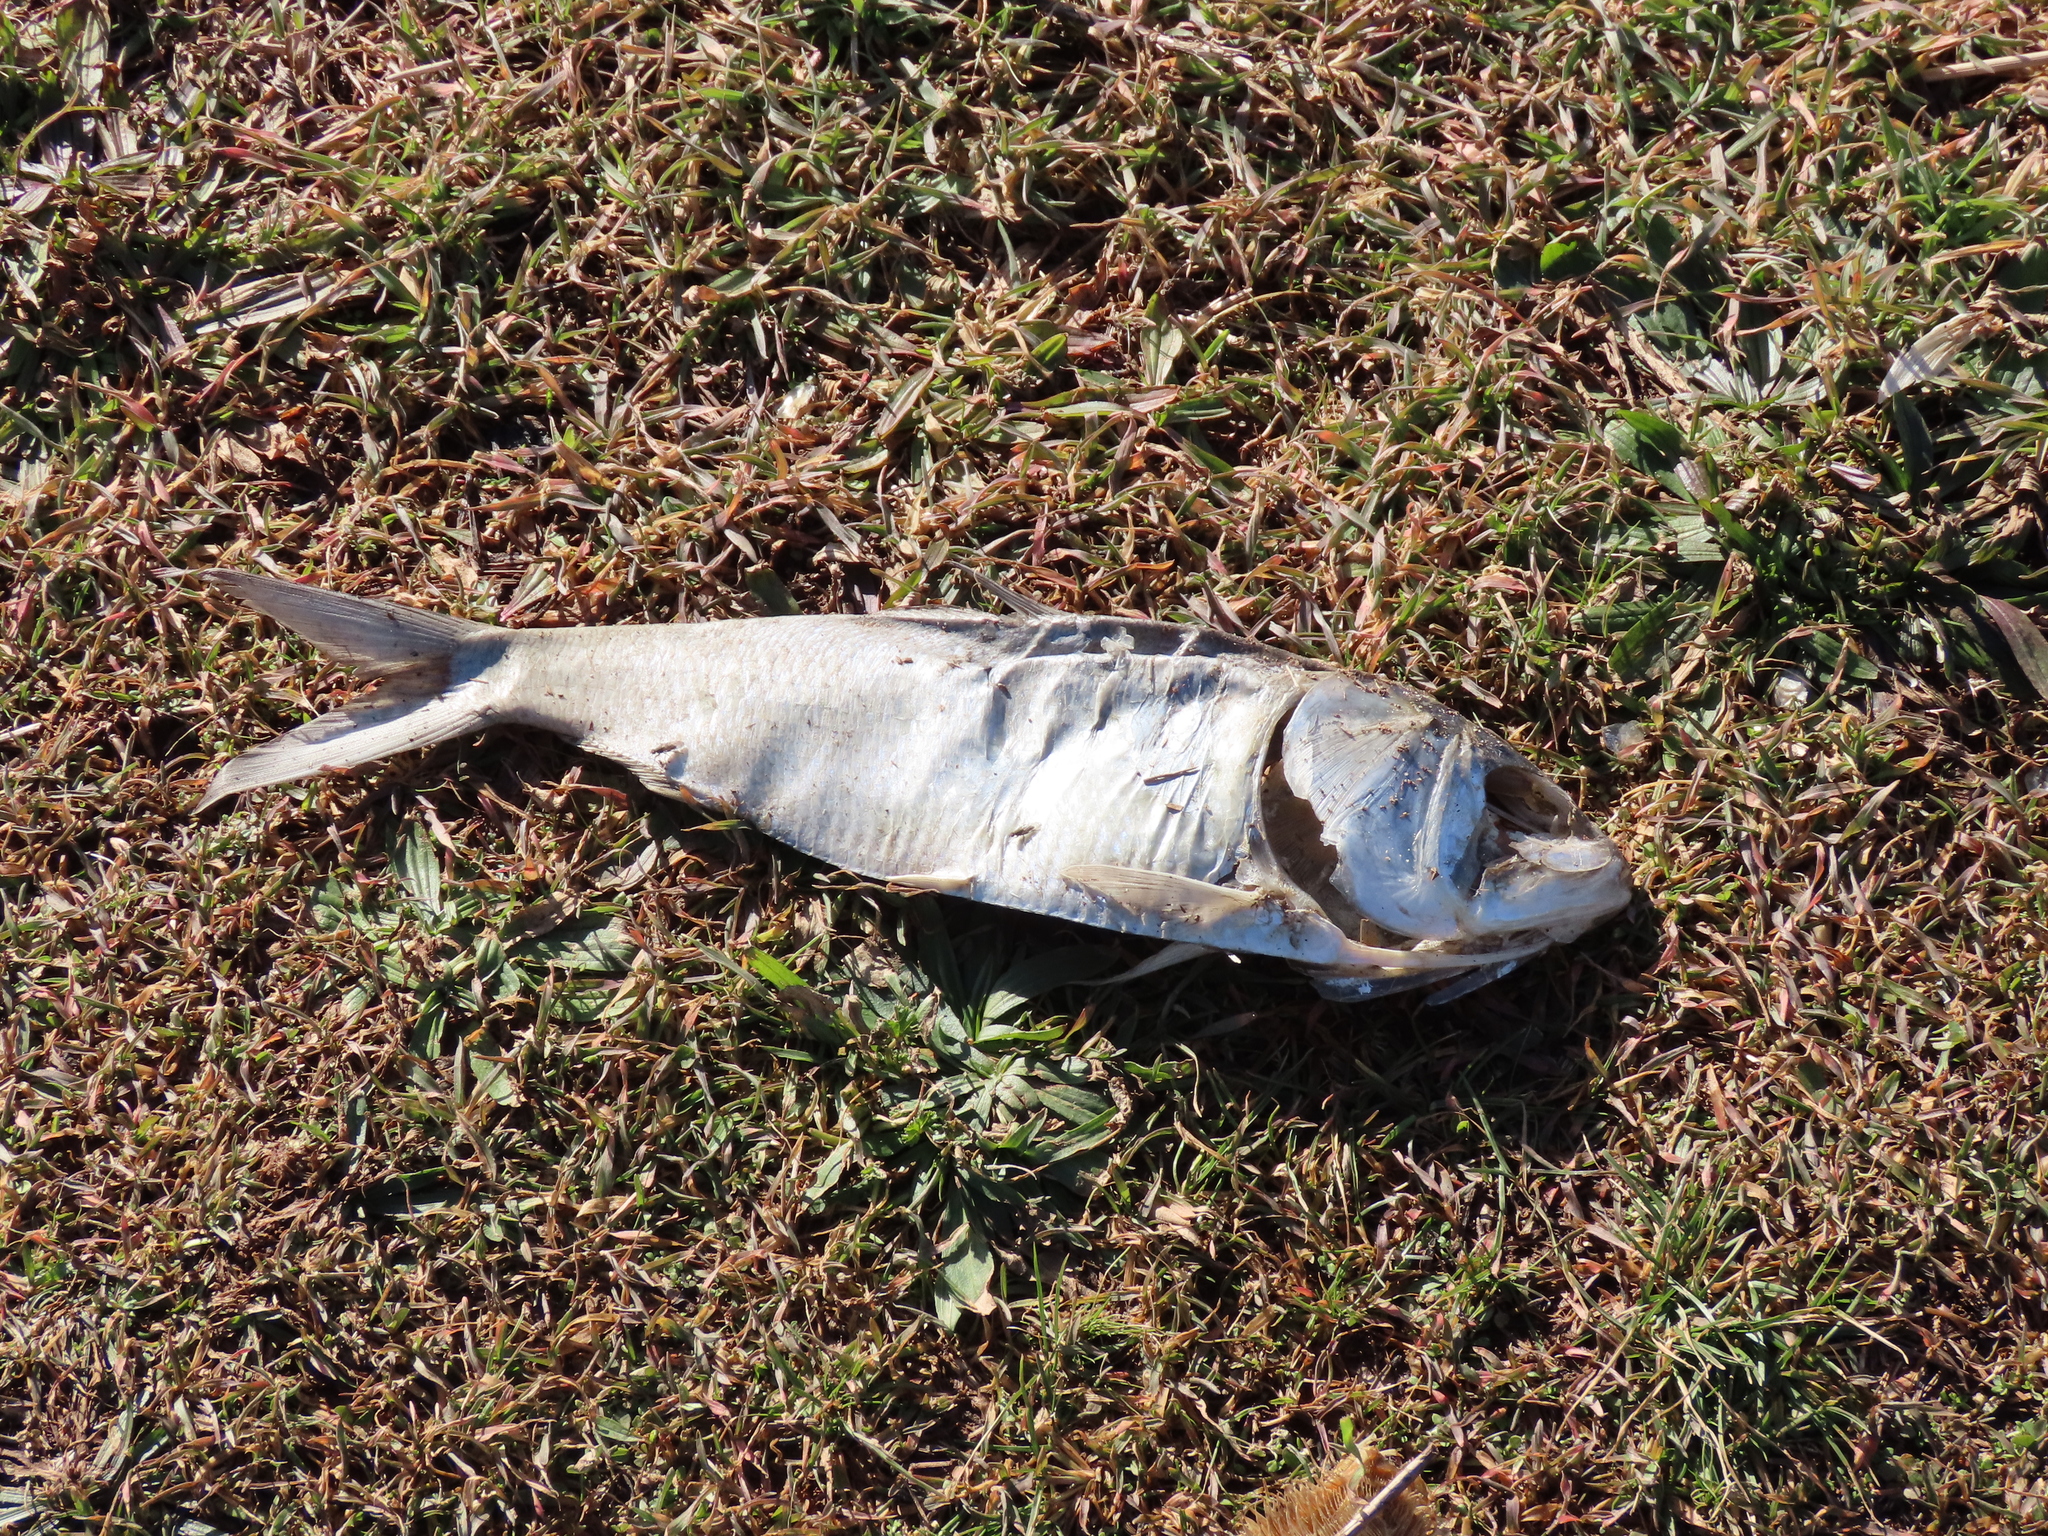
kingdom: Animalia
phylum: Chordata
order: Clupeiformes
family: Clupeidae
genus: Brevoortia
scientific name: Brevoortia tyrannus
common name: Atlantic menhaden
